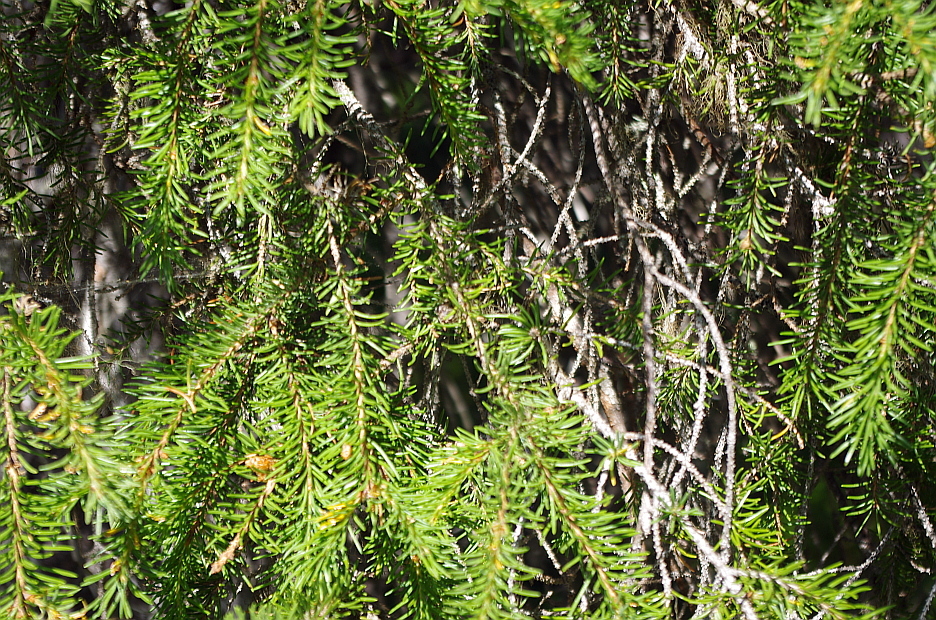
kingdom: Plantae
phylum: Tracheophyta
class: Pinopsida
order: Pinales
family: Pinaceae
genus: Picea
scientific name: Picea obovata
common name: Siberian spruce
